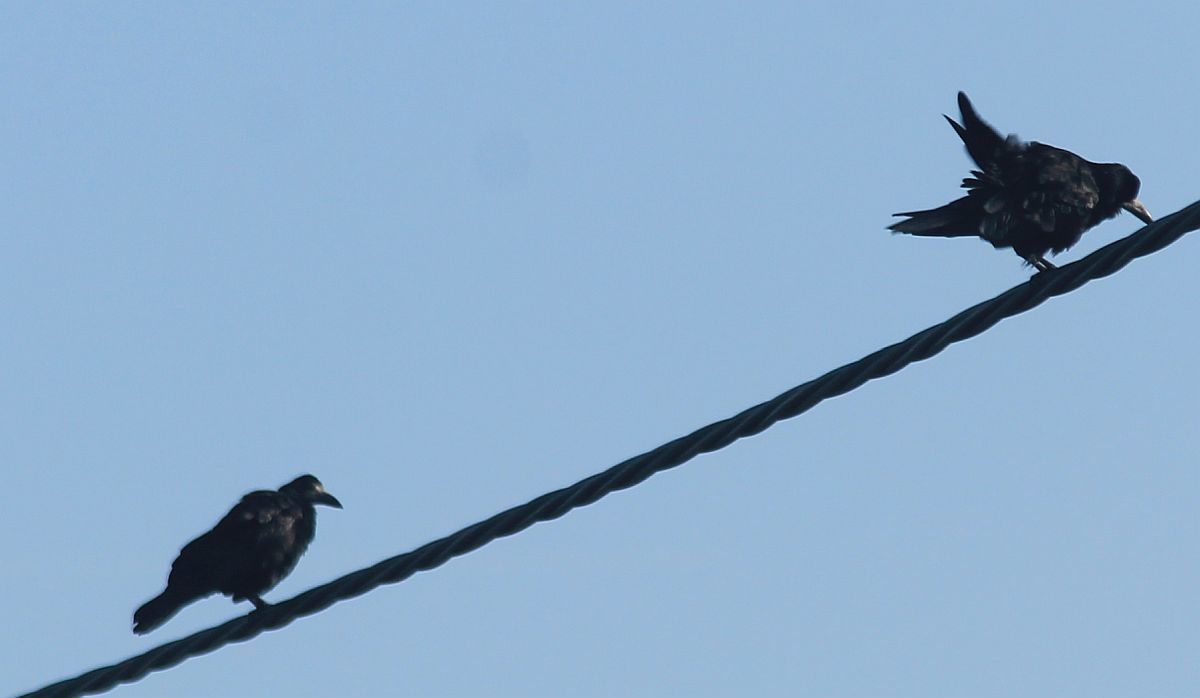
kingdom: Animalia
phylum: Chordata
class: Aves
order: Passeriformes
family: Corvidae
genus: Corvus
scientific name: Corvus frugilegus
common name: Rook
